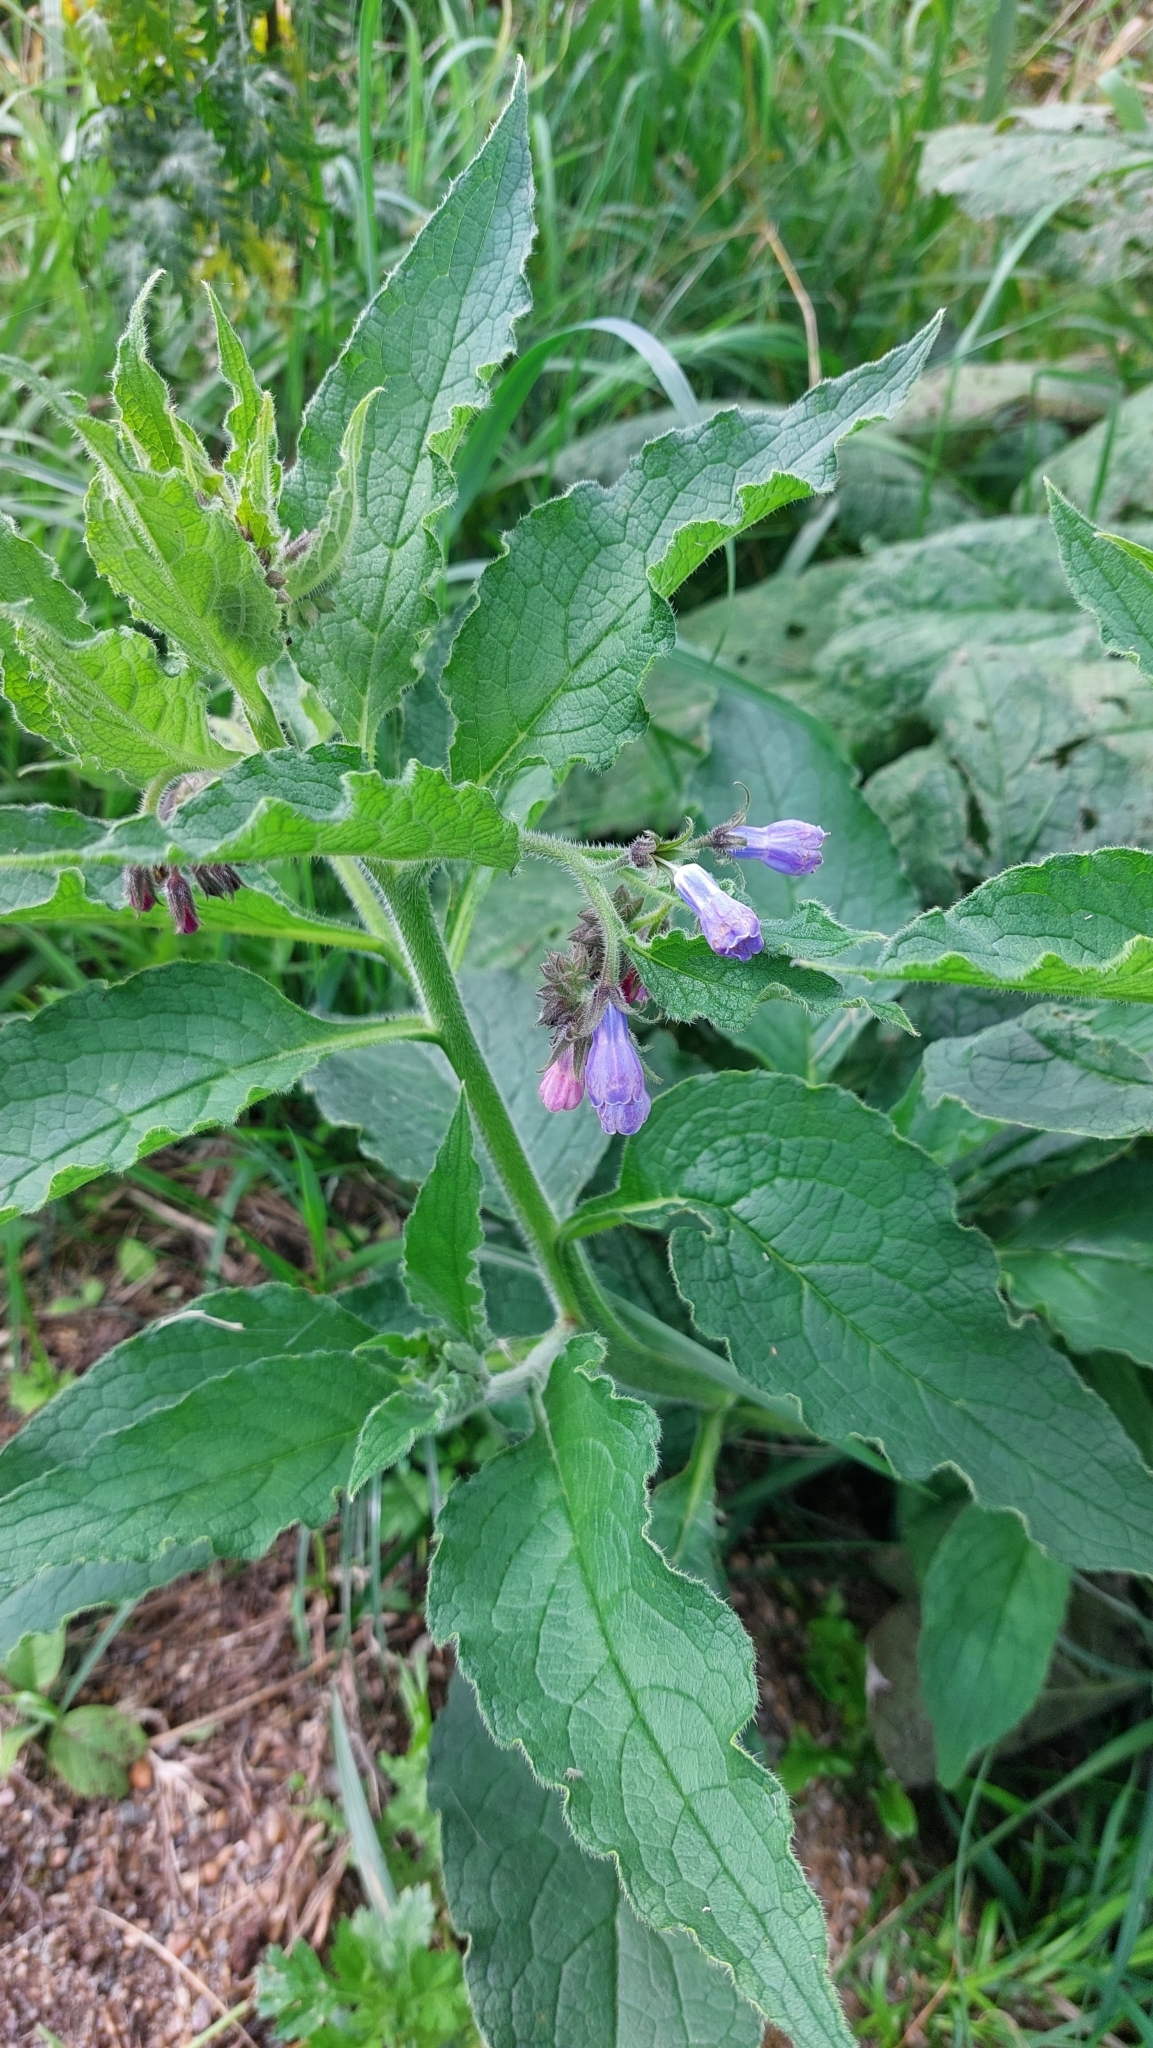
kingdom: Plantae
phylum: Tracheophyta
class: Magnoliopsida
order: Boraginales
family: Boraginaceae
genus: Symphytum
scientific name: Symphytum officinale
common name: Common comfrey
